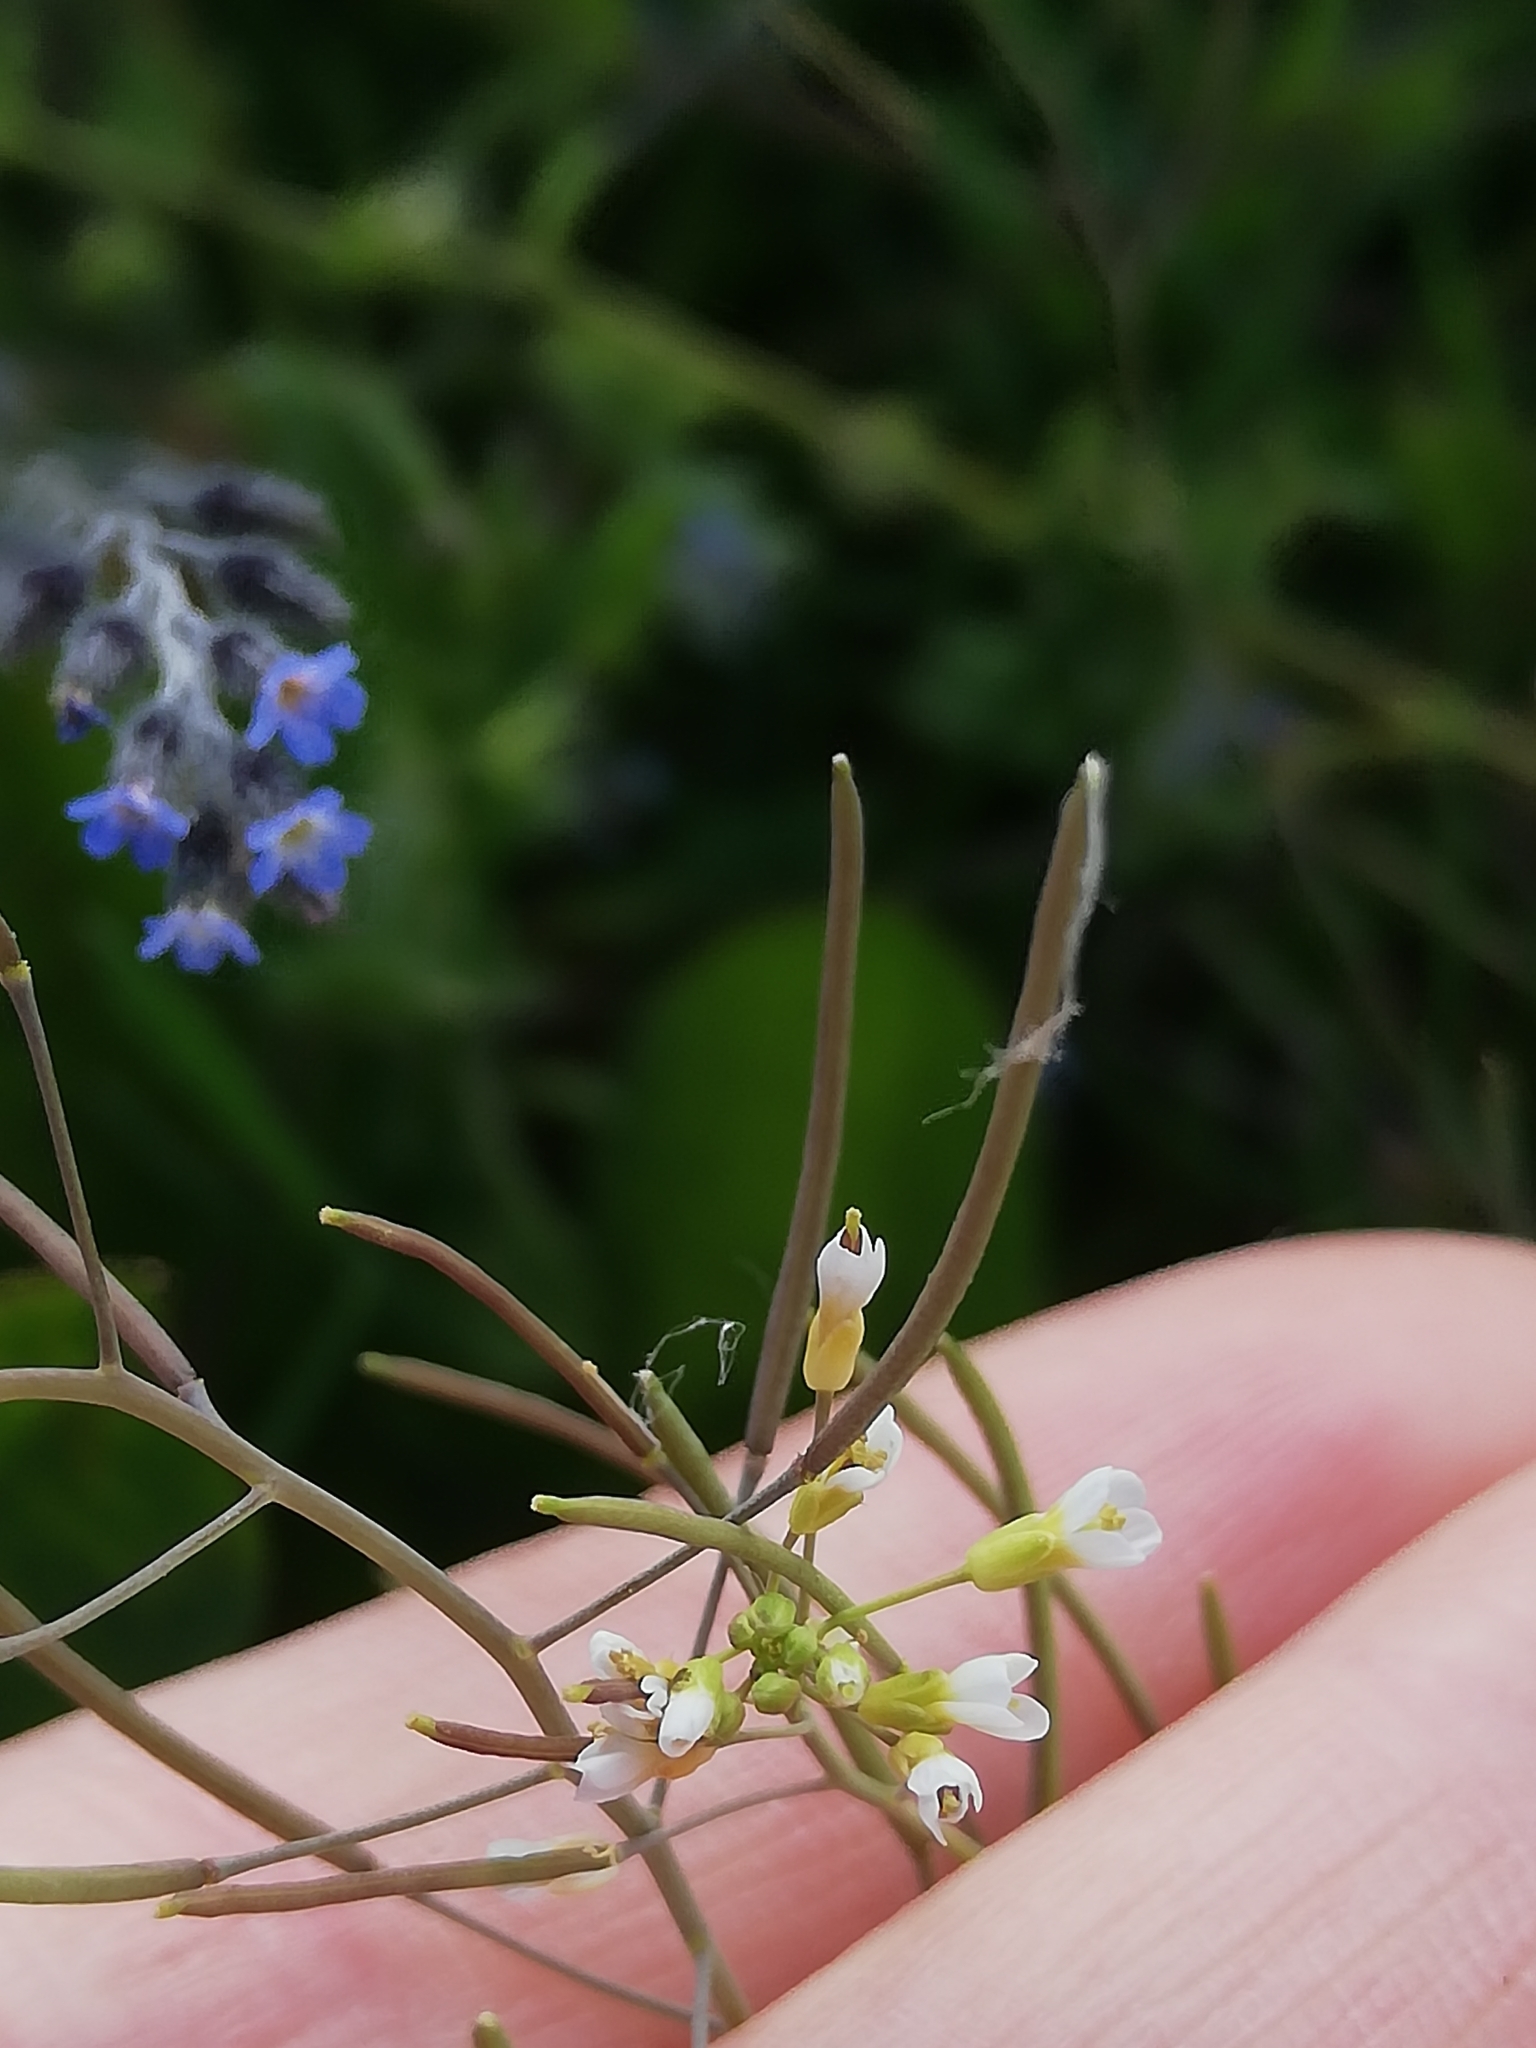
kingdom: Plantae
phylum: Tracheophyta
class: Magnoliopsida
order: Brassicales
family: Brassicaceae
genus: Arabidopsis
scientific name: Arabidopsis thaliana
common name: Thale cress
